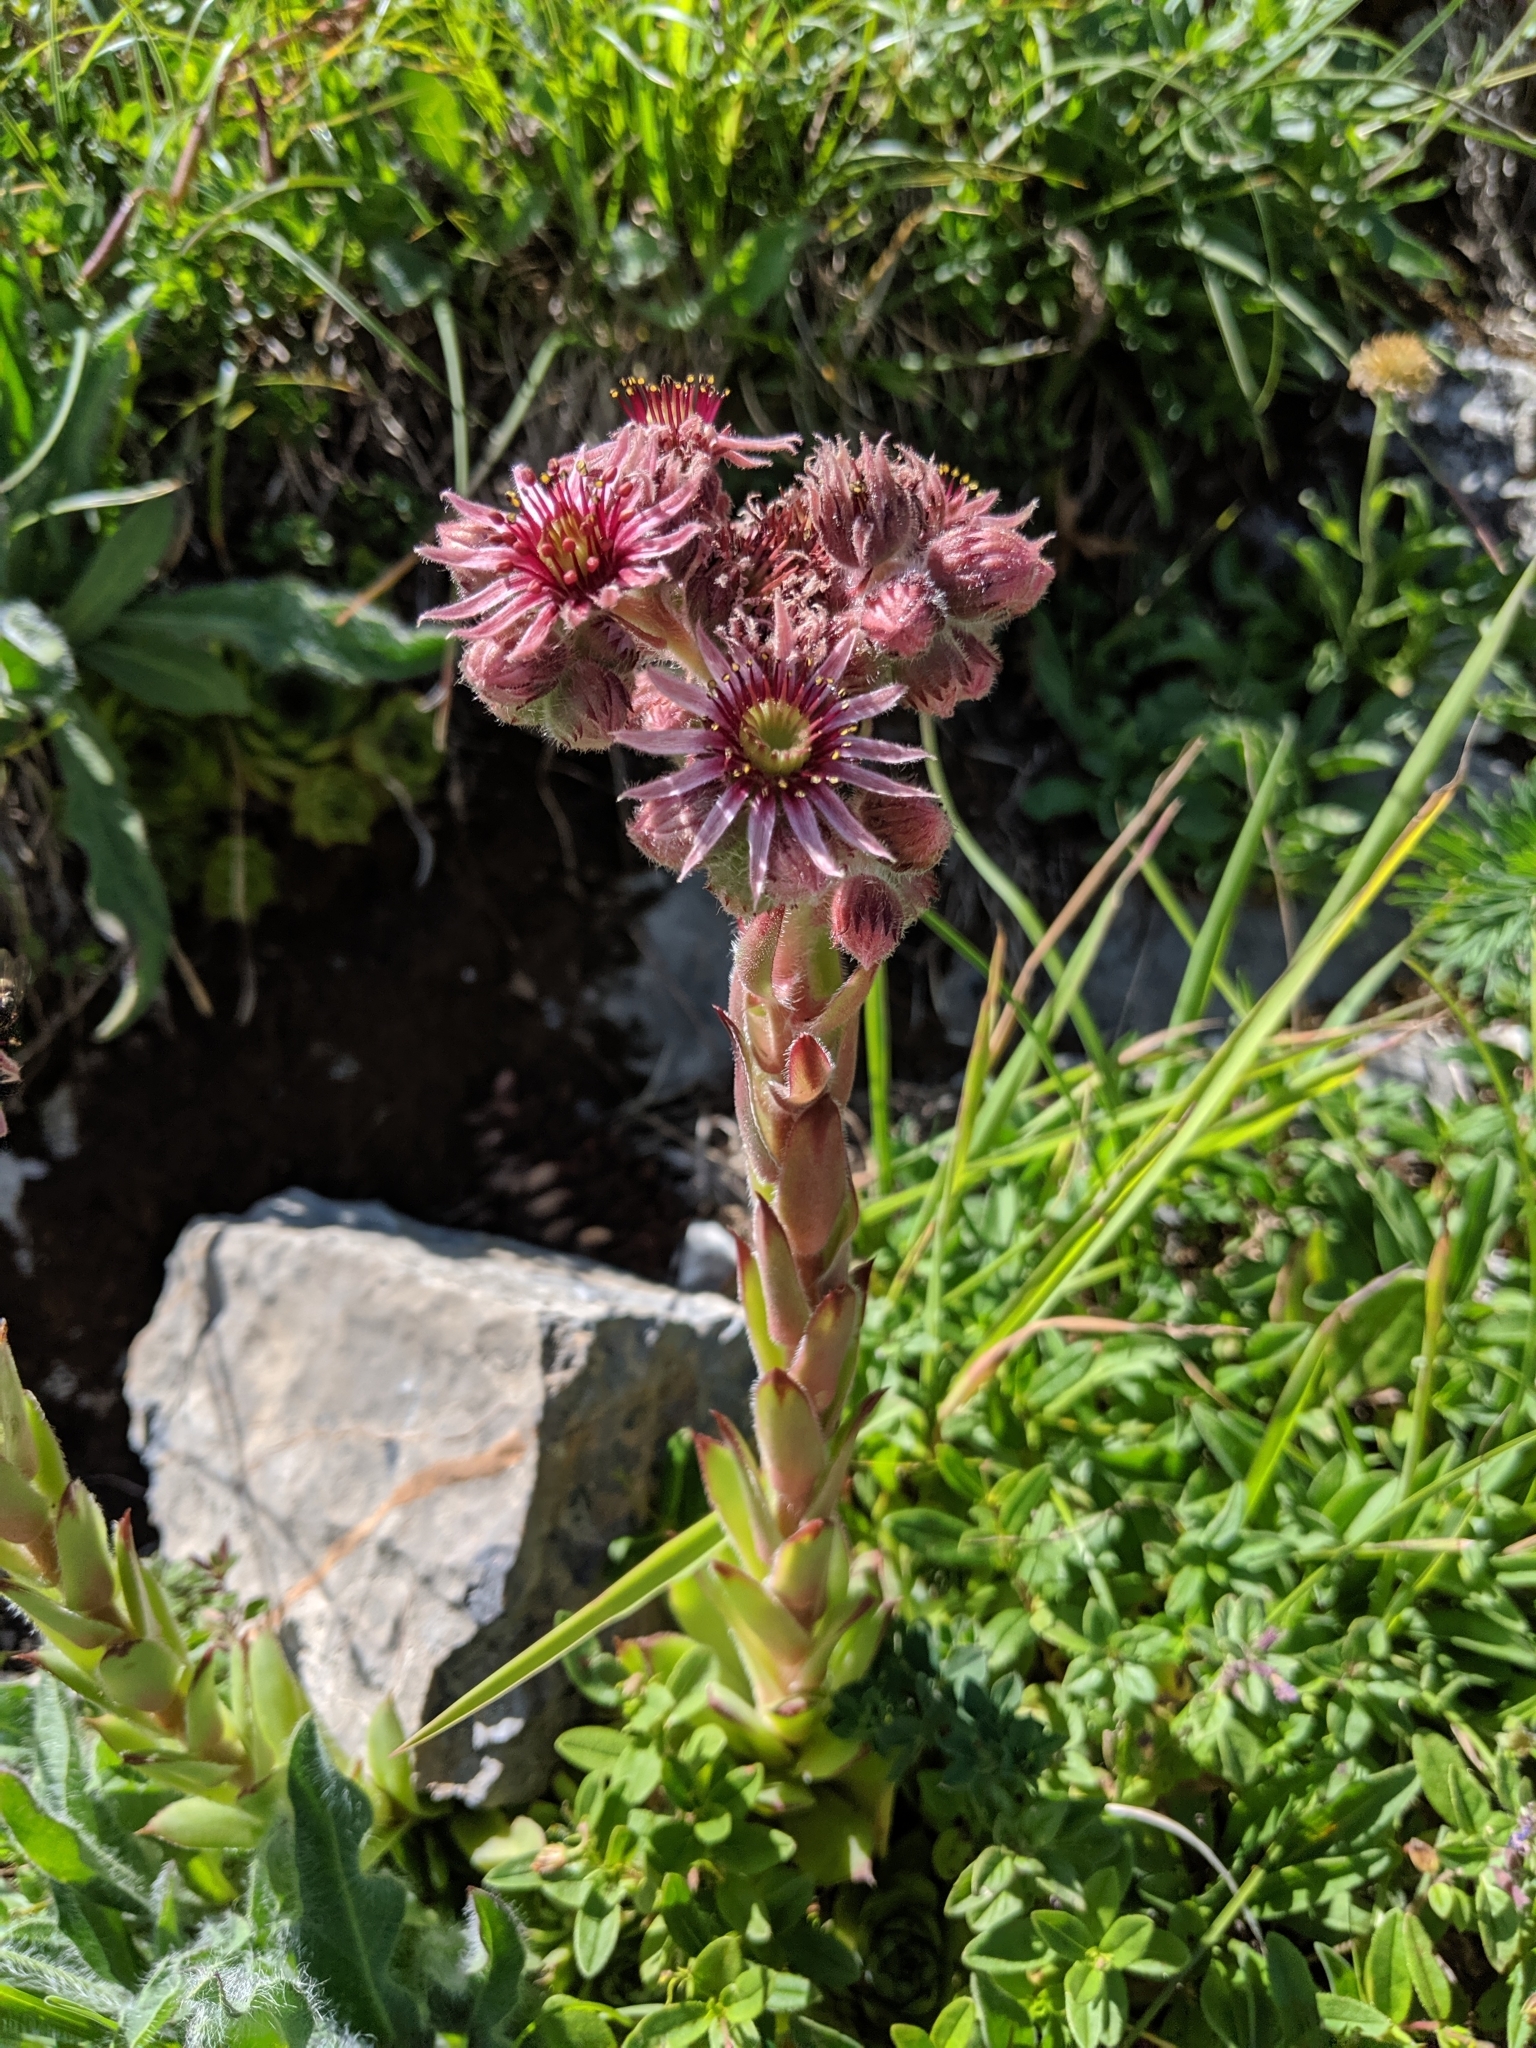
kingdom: Plantae
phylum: Tracheophyta
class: Magnoliopsida
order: Saxifragales
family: Crassulaceae
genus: Sempervivum
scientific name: Sempervivum tectorum
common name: House-leek
